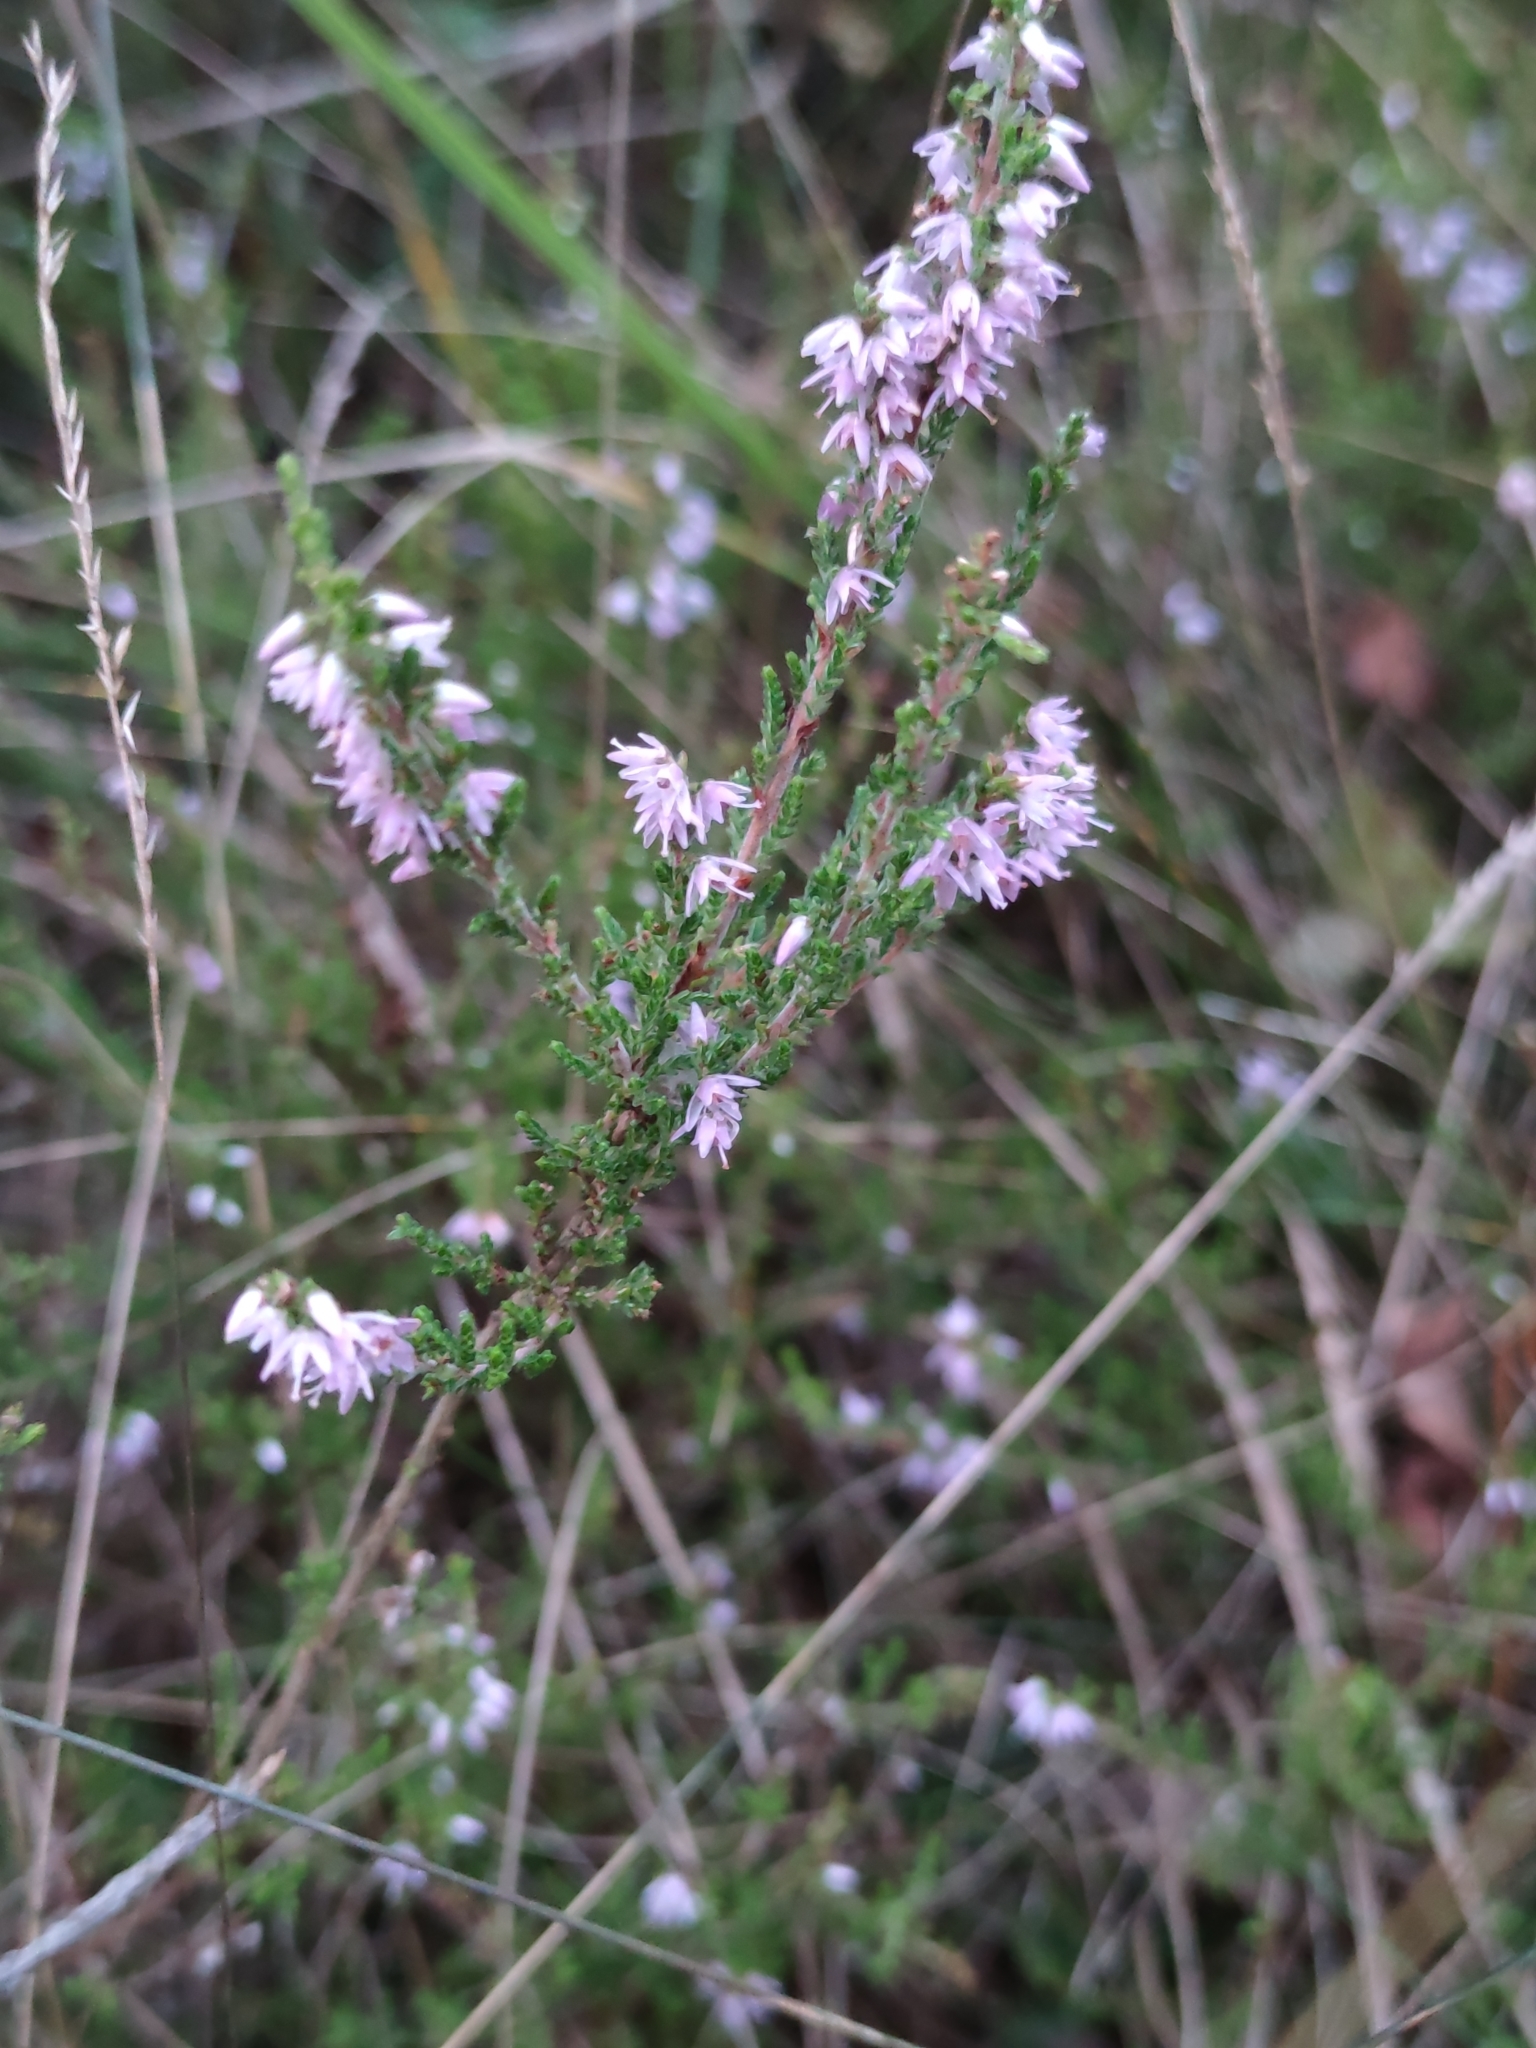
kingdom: Plantae
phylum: Tracheophyta
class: Magnoliopsida
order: Ericales
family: Ericaceae
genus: Calluna
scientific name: Calluna vulgaris
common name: Heather
